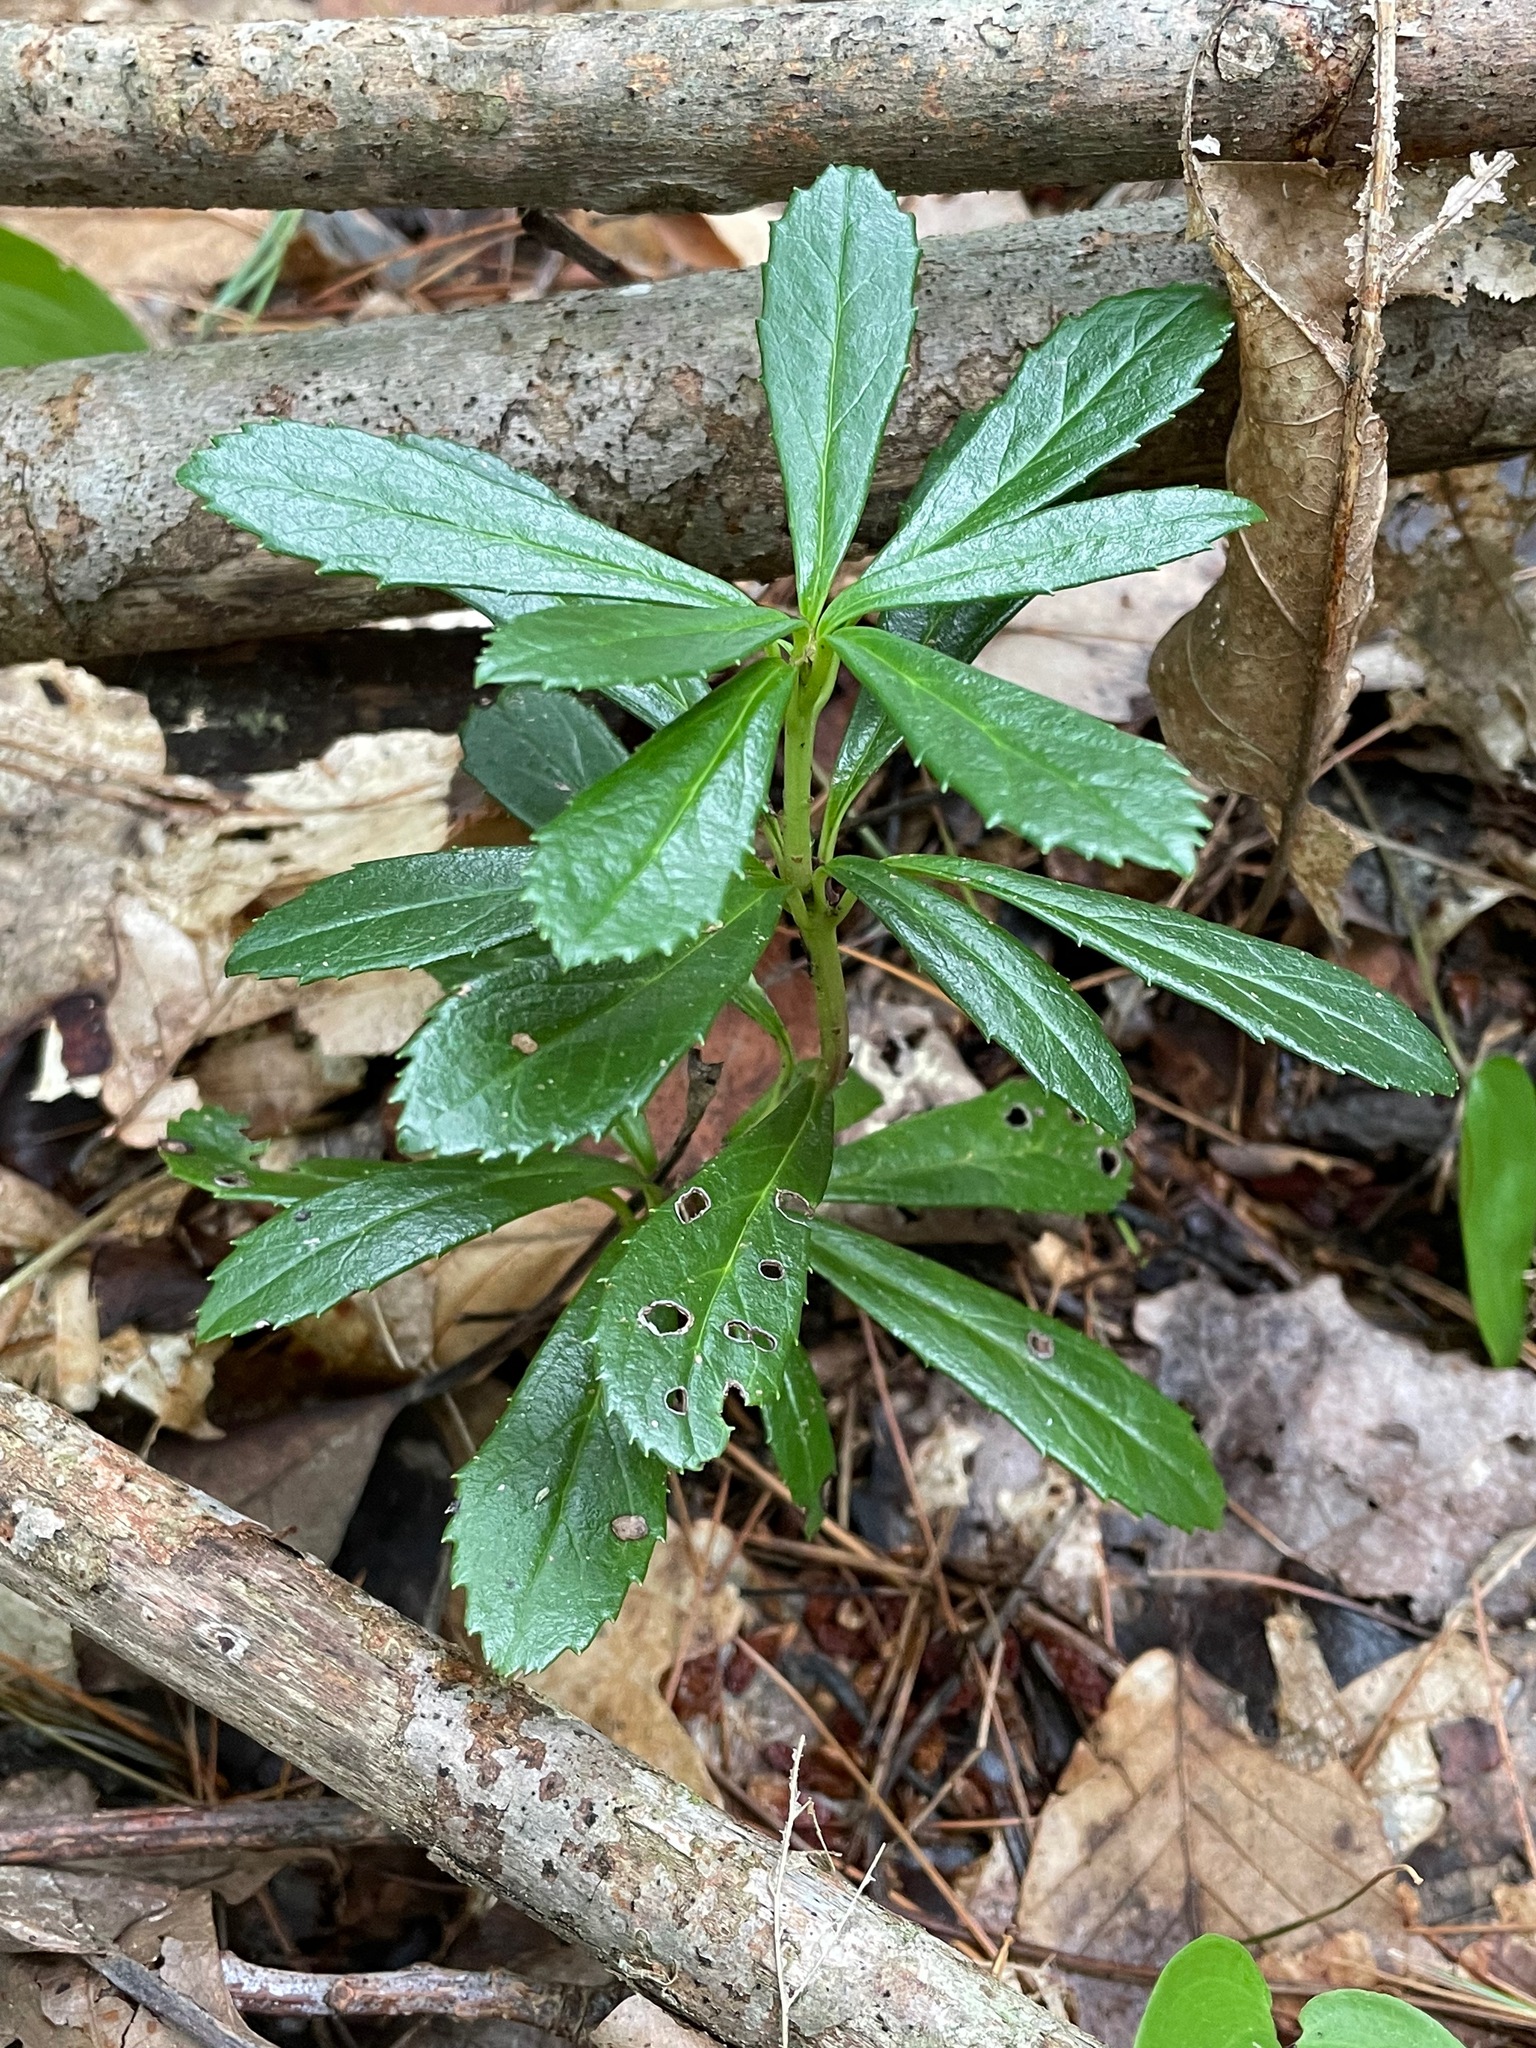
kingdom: Plantae
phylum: Tracheophyta
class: Magnoliopsida
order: Ericales
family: Ericaceae
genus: Chimaphila
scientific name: Chimaphila umbellata
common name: Pipsissewa
